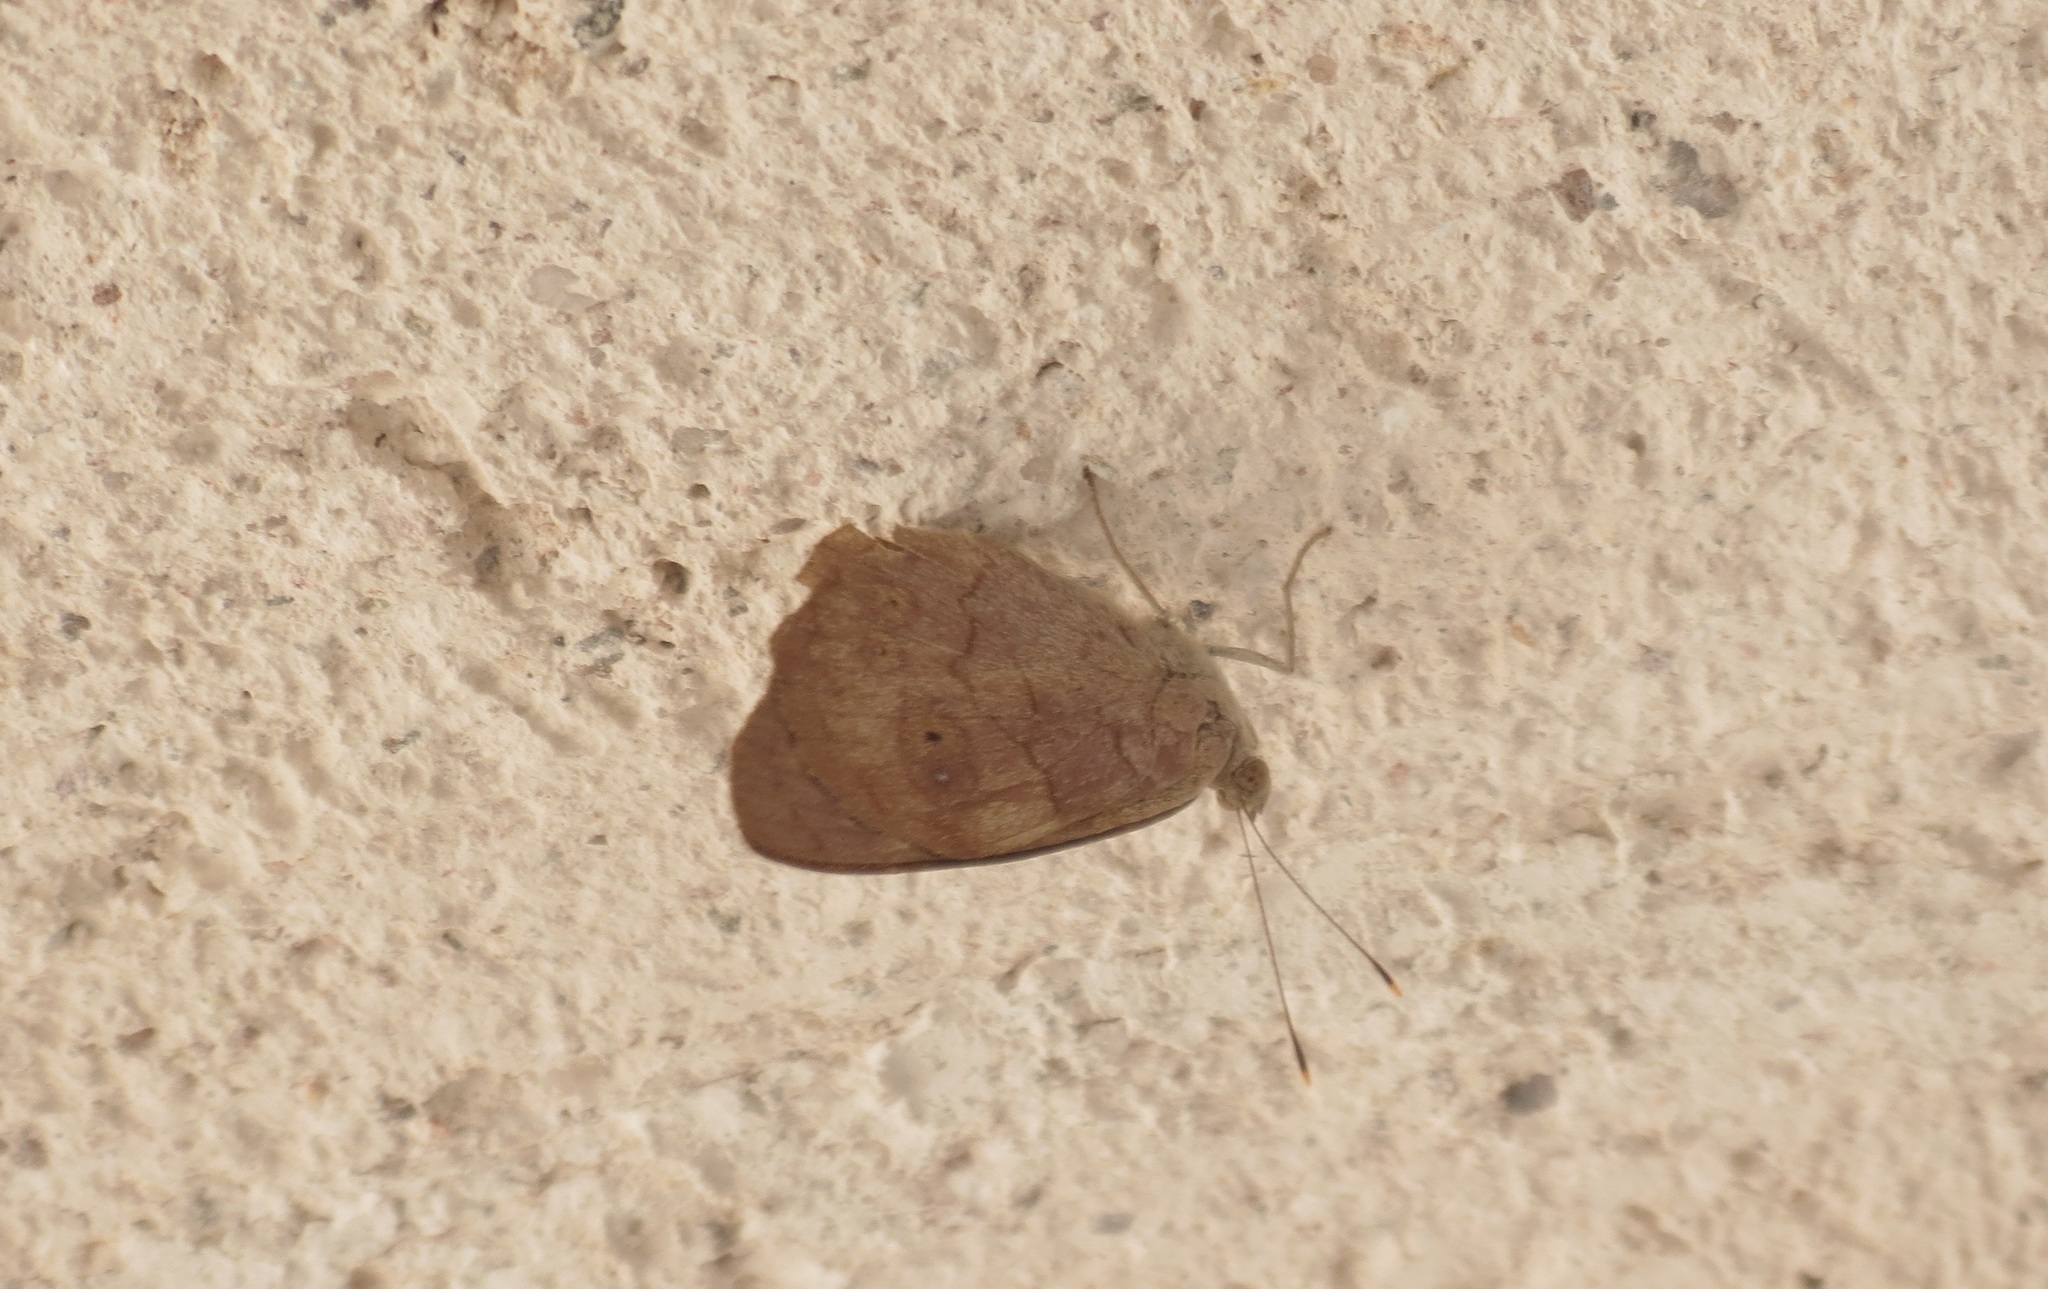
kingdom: Animalia
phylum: Arthropoda
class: Insecta
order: Lepidoptera
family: Nymphalidae
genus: Eunica
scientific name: Eunica monima
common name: Dingy purplewing
